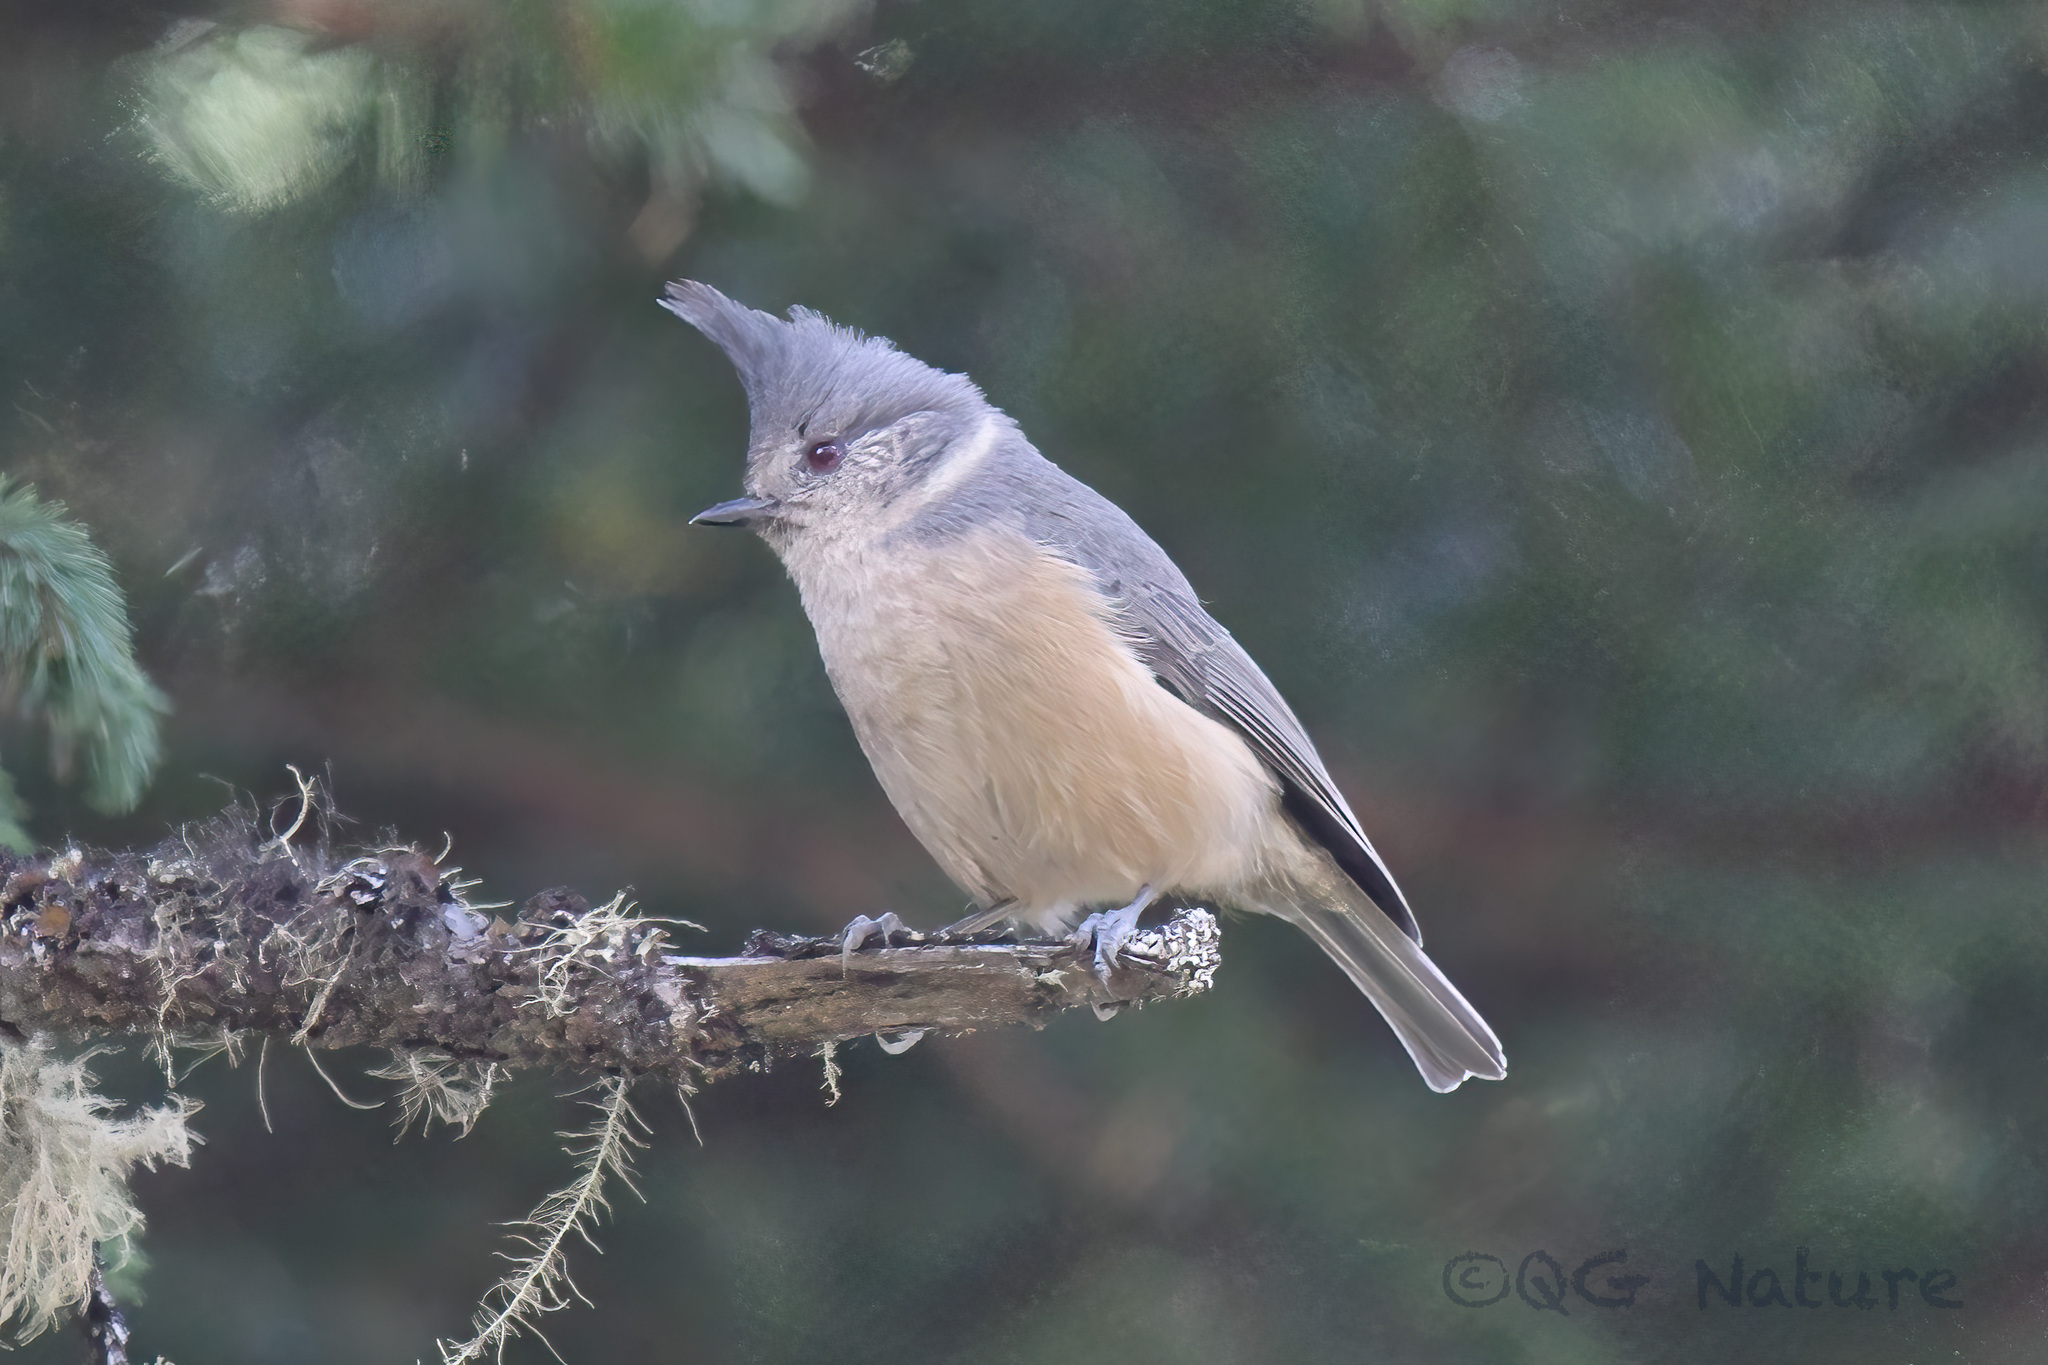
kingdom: Animalia
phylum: Chordata
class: Aves
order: Passeriformes
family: Paridae
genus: Lophophanes
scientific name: Lophophanes dichrous
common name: Grey crested tit
